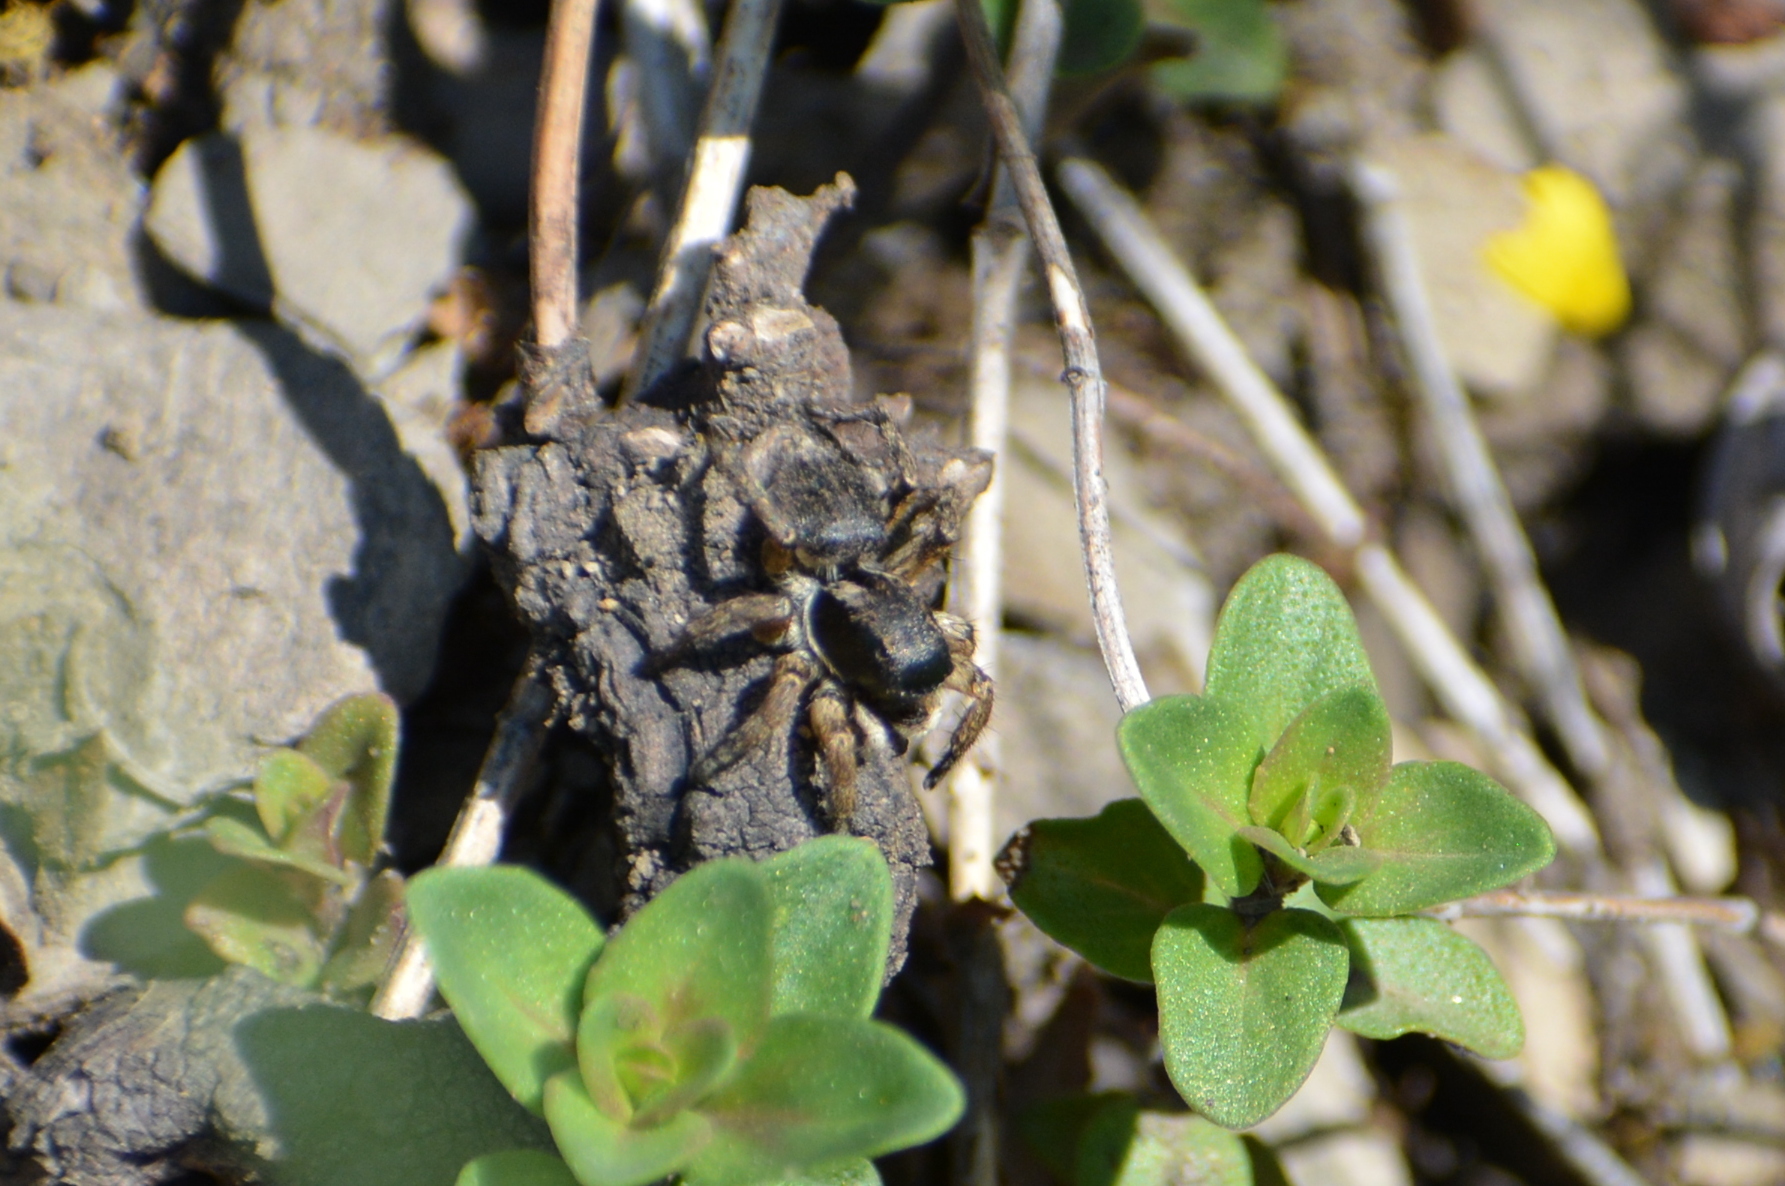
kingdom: Animalia
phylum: Arthropoda
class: Arachnida
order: Araneae
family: Salticidae
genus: Asianellus
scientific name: Asianellus festivus
